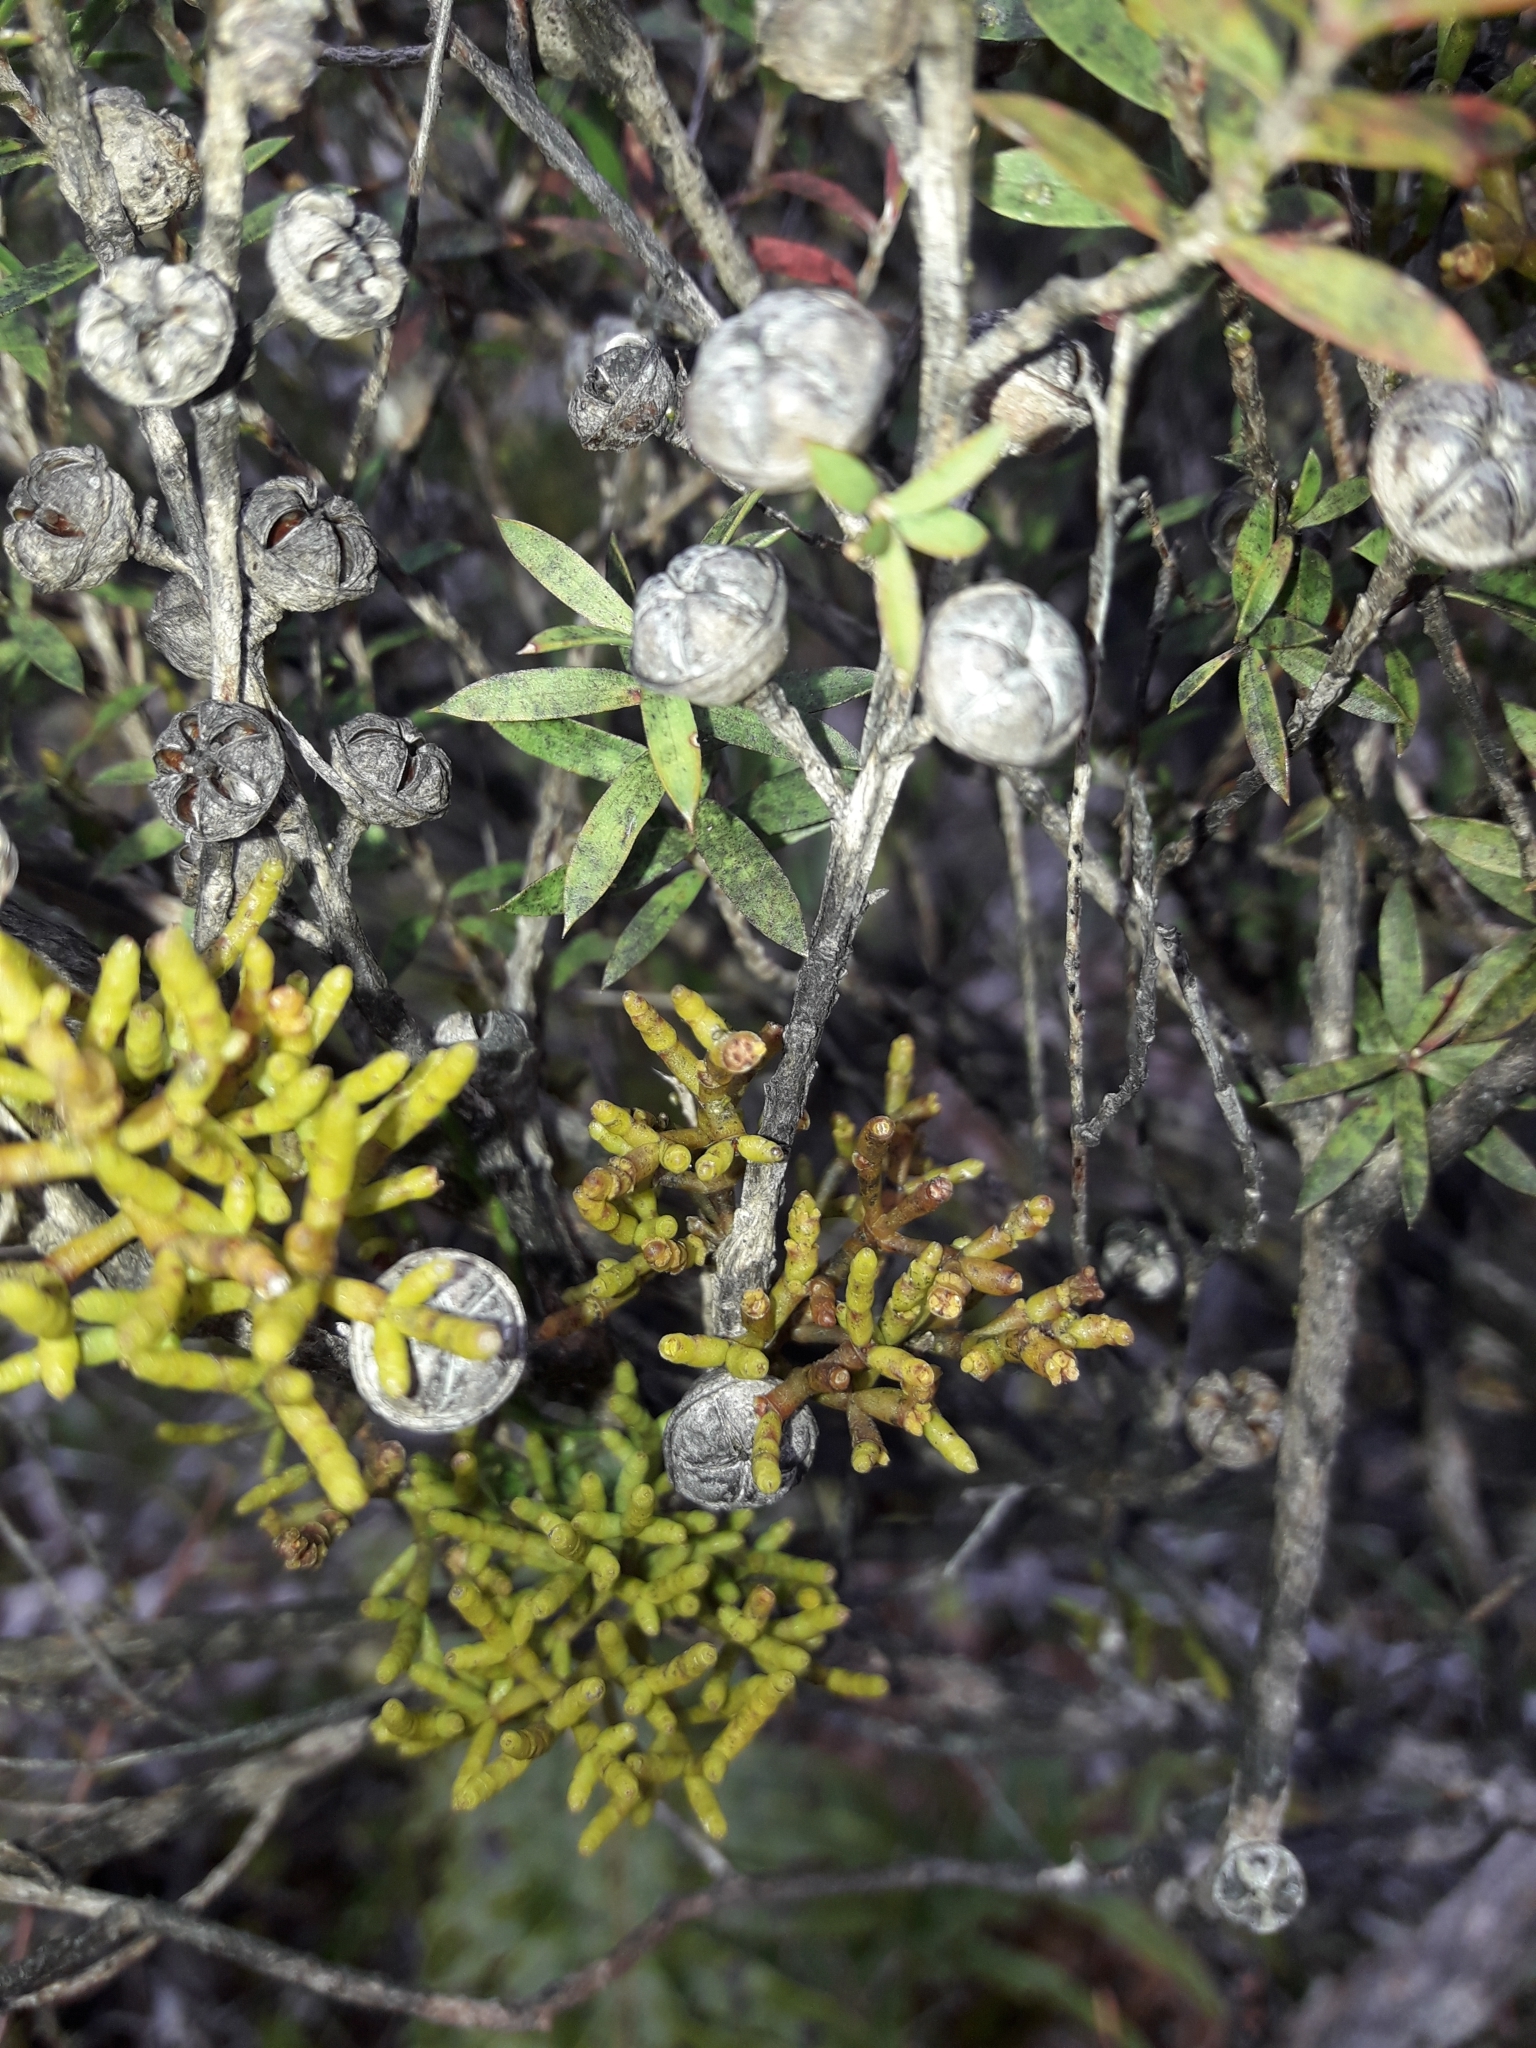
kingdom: Plantae
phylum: Tracheophyta
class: Magnoliopsida
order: Santalales
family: Viscaceae
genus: Korthalsella
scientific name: Korthalsella salicornioides
